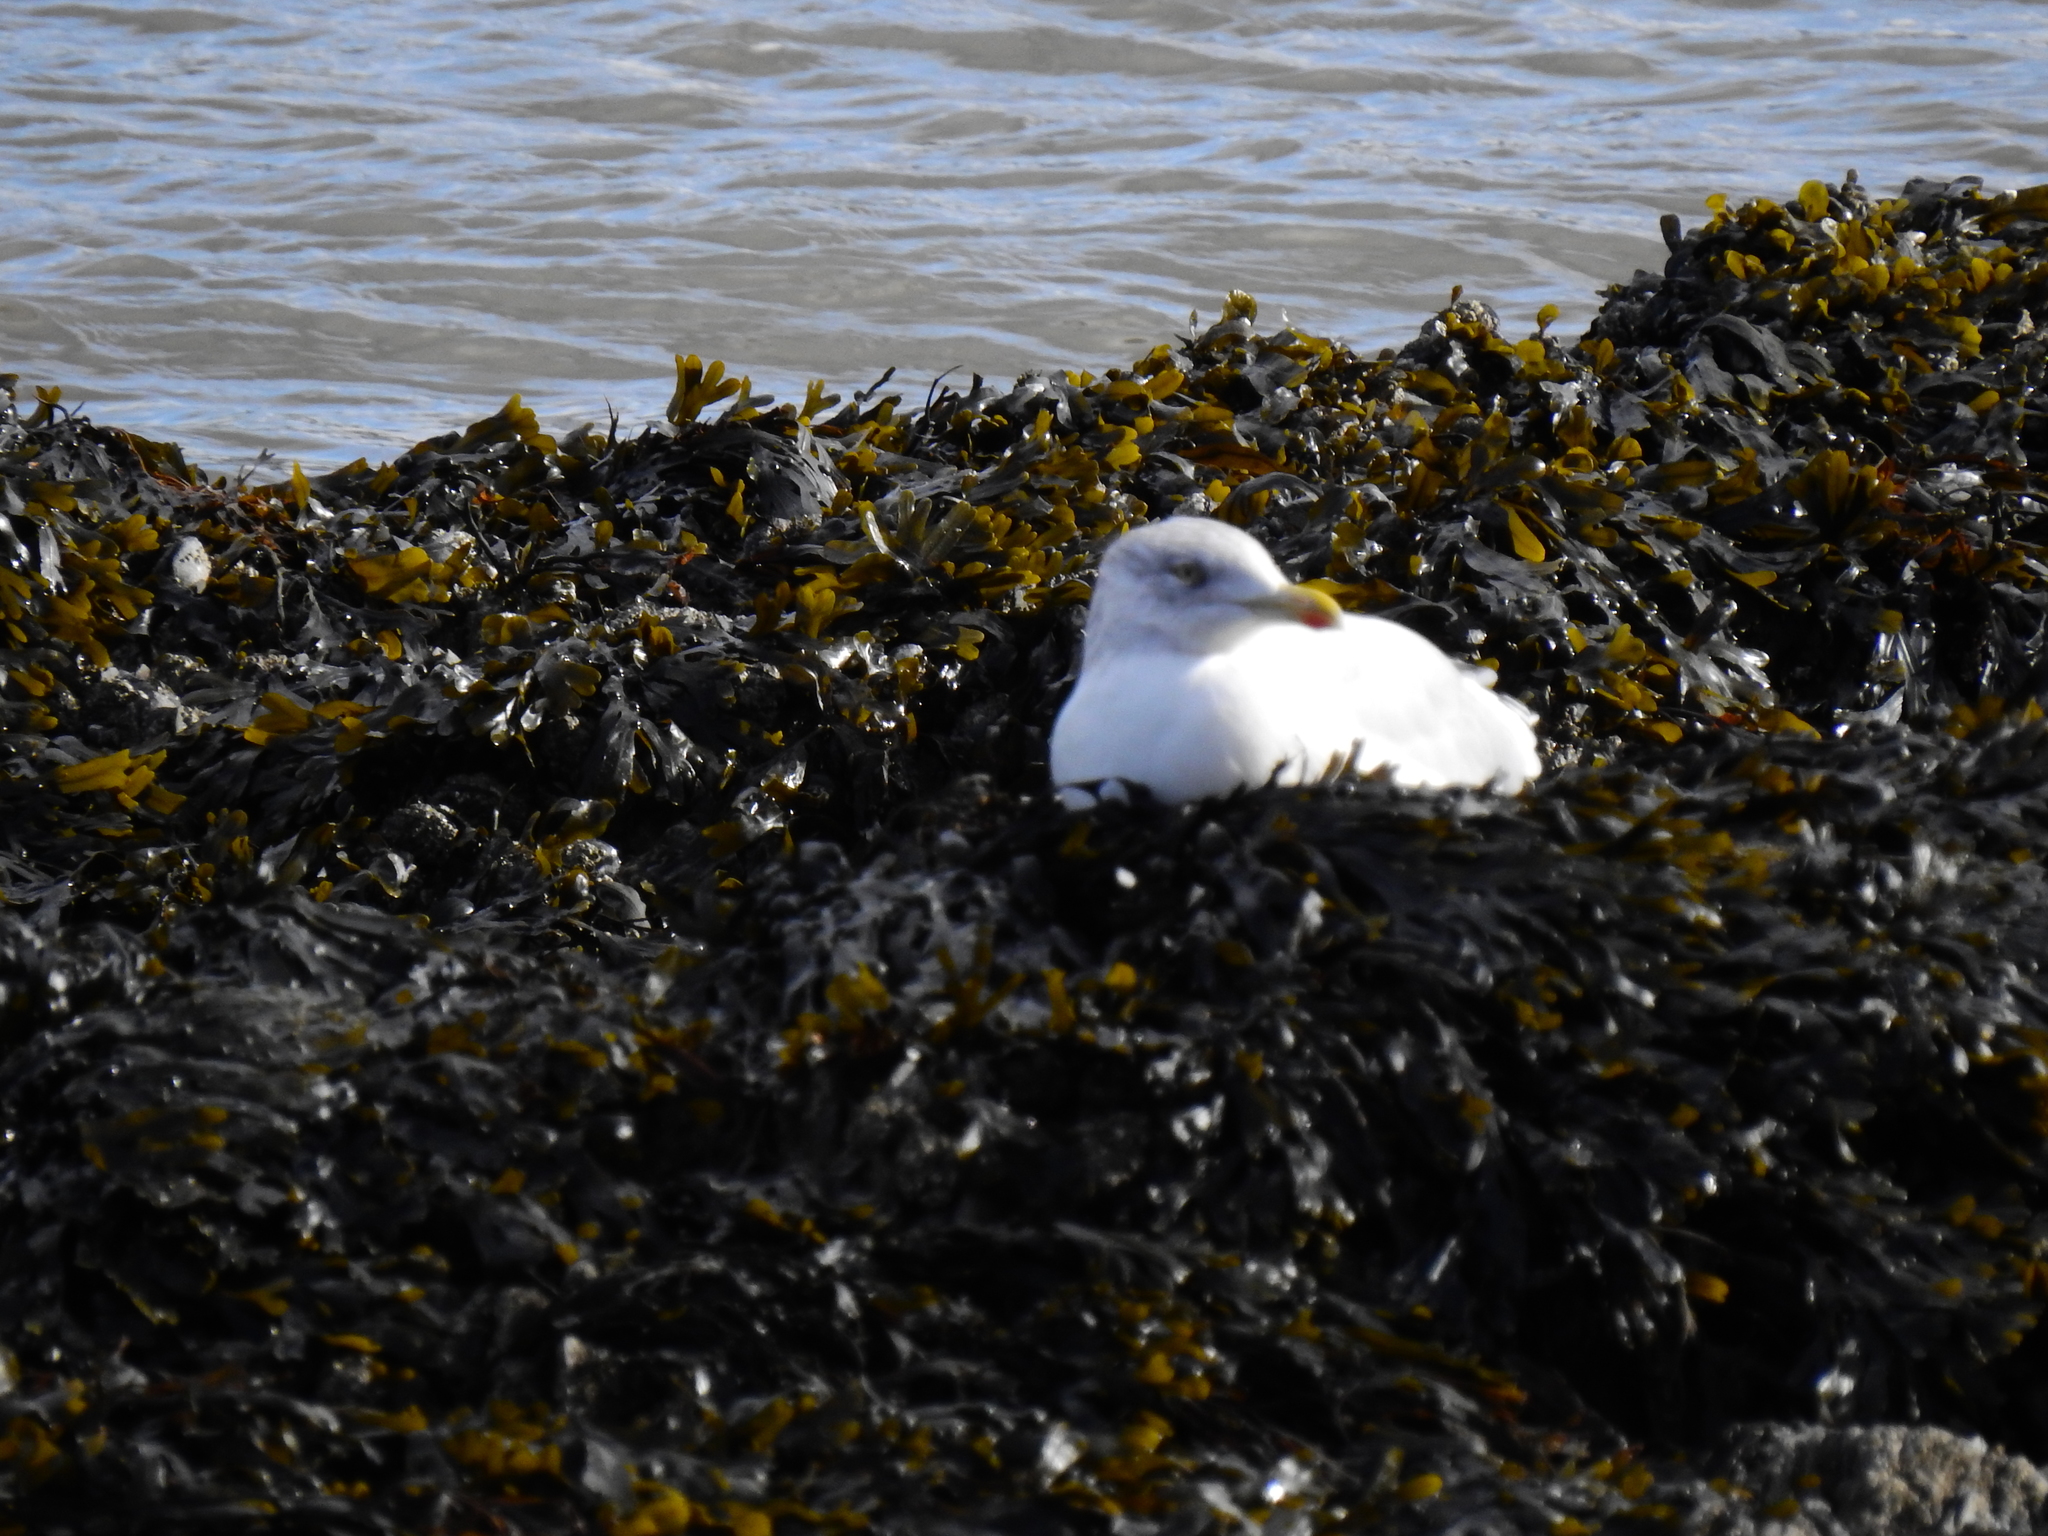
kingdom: Animalia
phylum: Chordata
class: Aves
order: Charadriiformes
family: Laridae
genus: Larus
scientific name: Larus argentatus
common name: Herring gull
